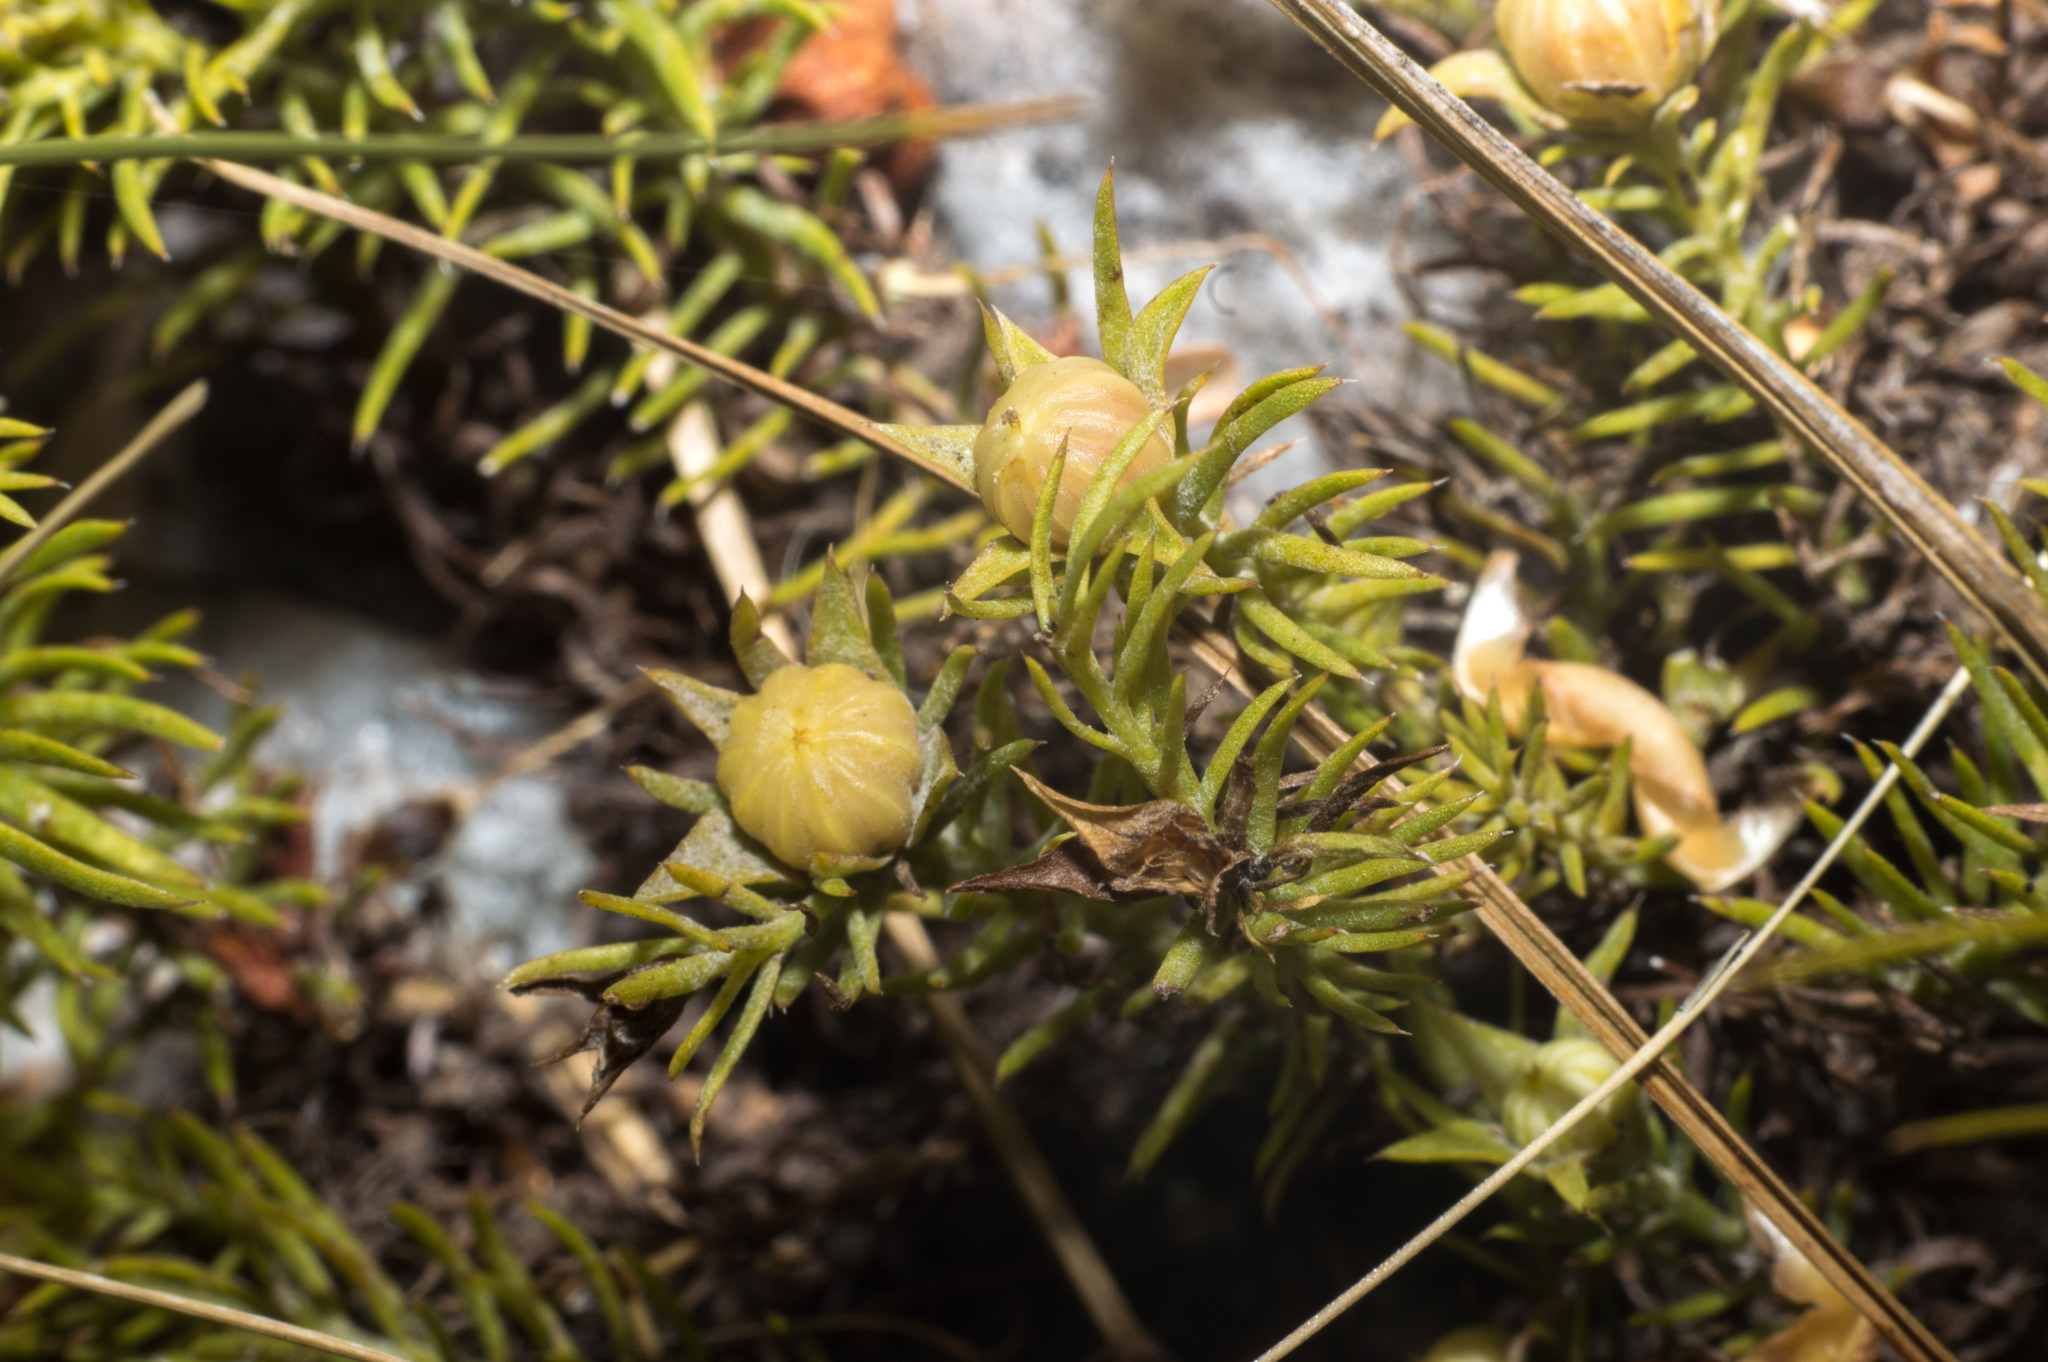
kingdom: Plantae
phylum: Tracheophyta
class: Magnoliopsida
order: Malpighiales
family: Linaceae
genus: Cliococca
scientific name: Cliococca selaginoides
